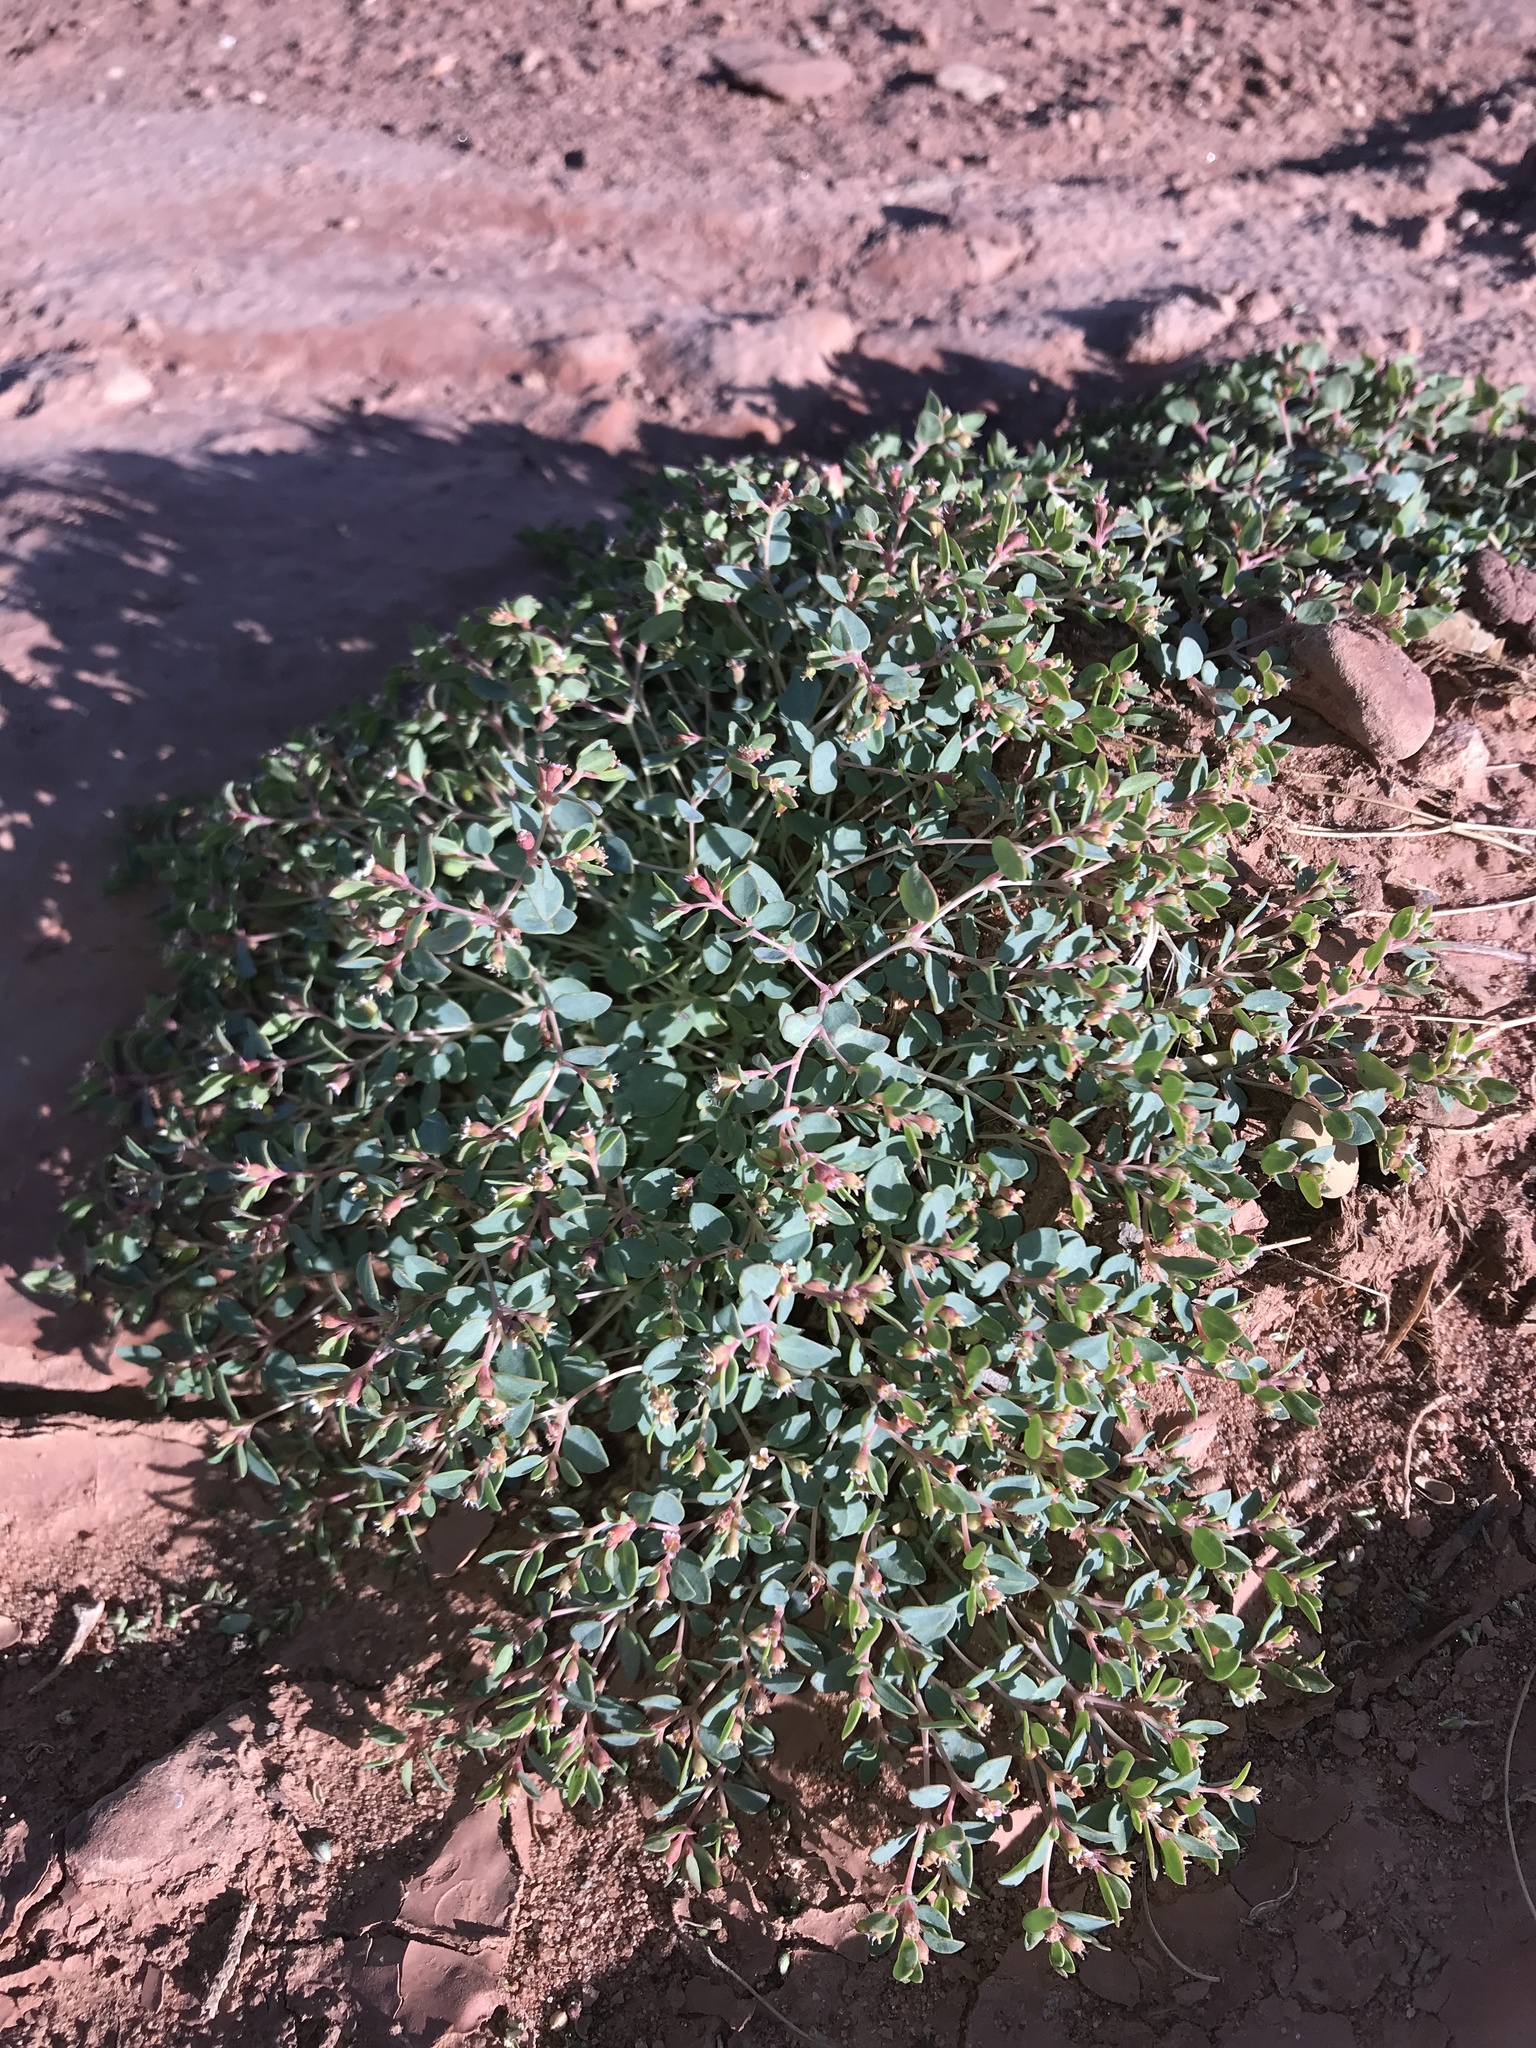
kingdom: Plantae
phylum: Tracheophyta
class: Magnoliopsida
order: Malpighiales
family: Euphorbiaceae
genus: Euphorbia
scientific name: Euphorbia fendleri
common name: Fendler's euphorbia
